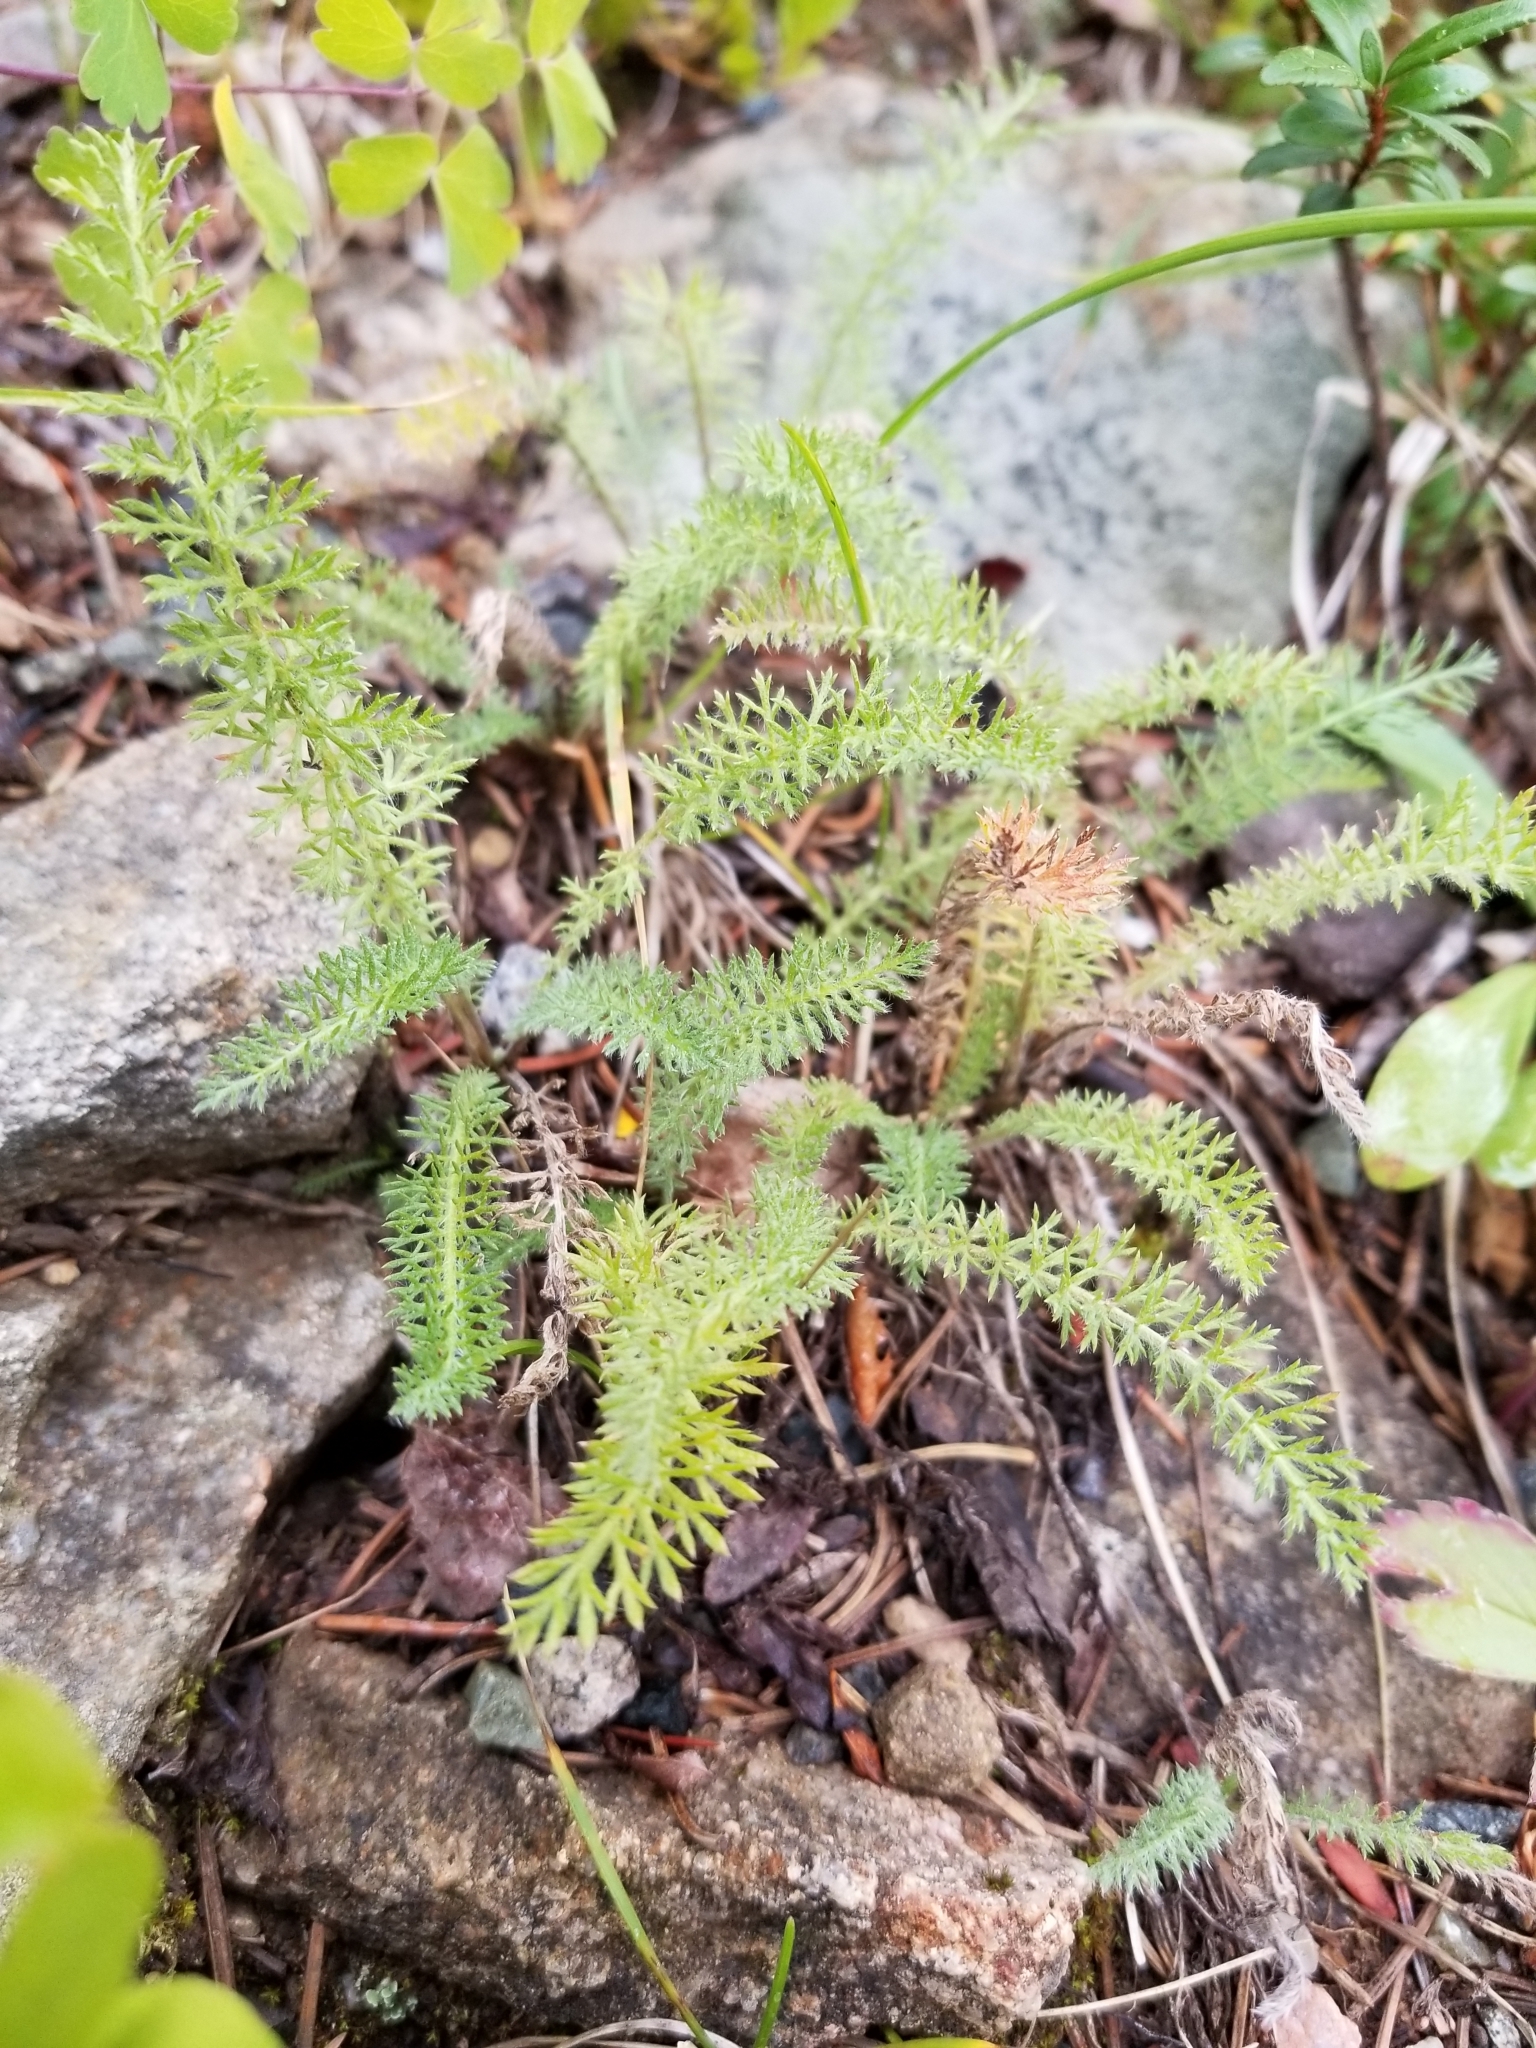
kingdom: Plantae
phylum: Tracheophyta
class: Magnoliopsida
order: Asterales
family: Asteraceae
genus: Achillea
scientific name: Achillea millefolium
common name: Yarrow
